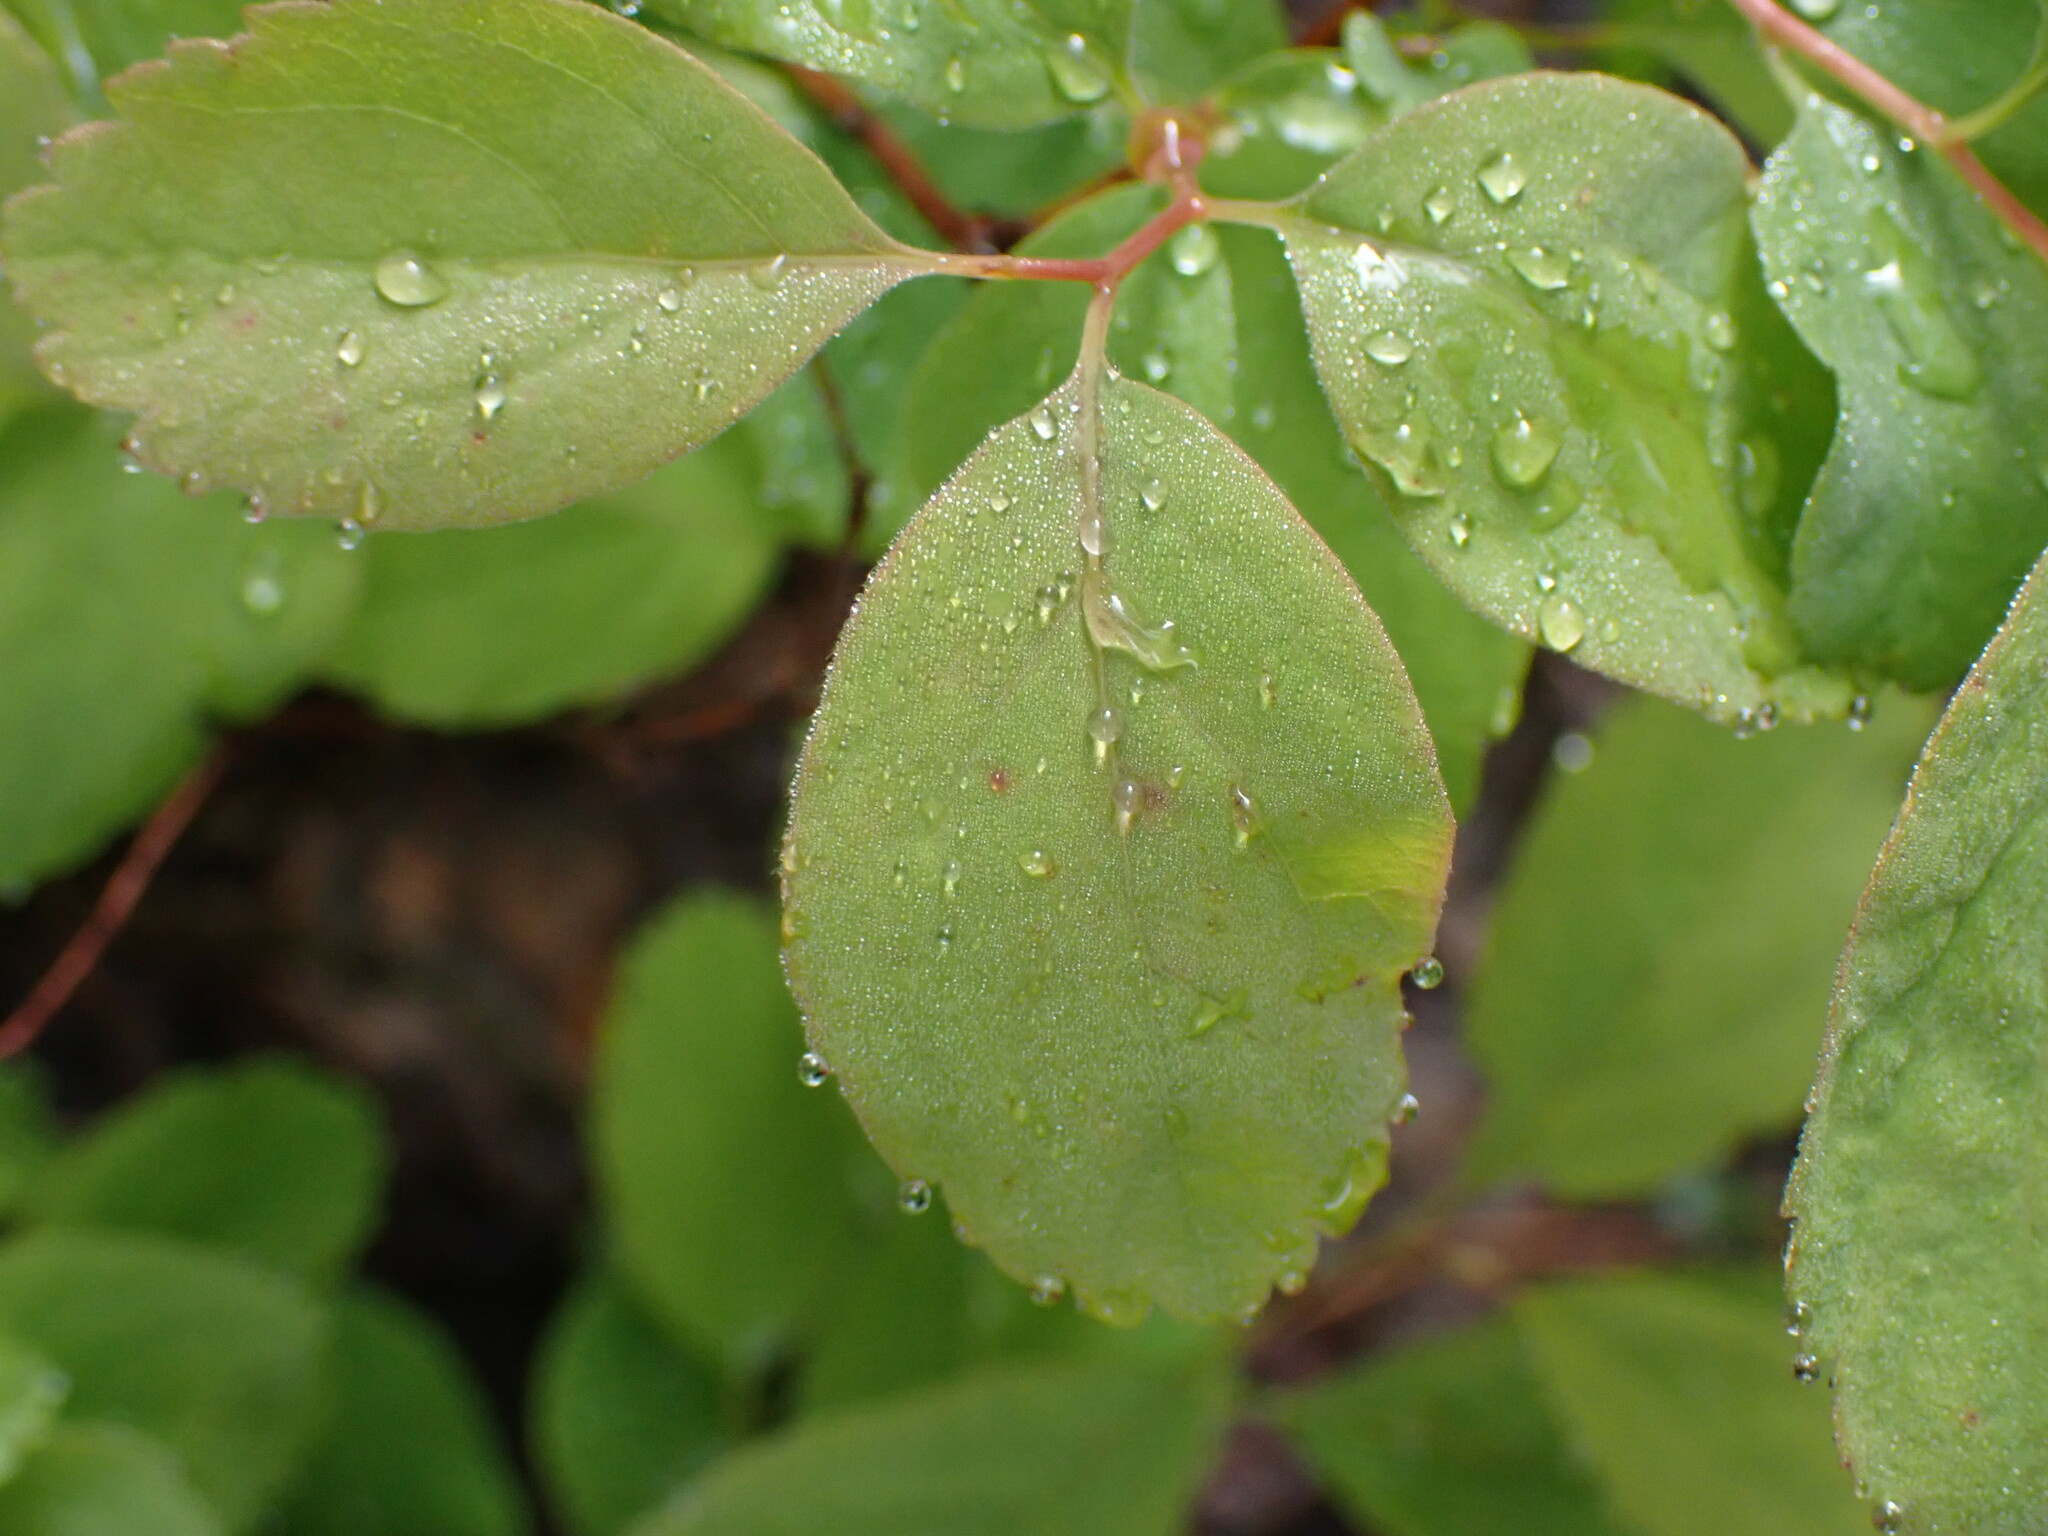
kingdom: Plantae
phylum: Tracheophyta
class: Magnoliopsida
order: Rosales
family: Rosaceae
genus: Amelanchier
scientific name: Amelanchier alnifolia
